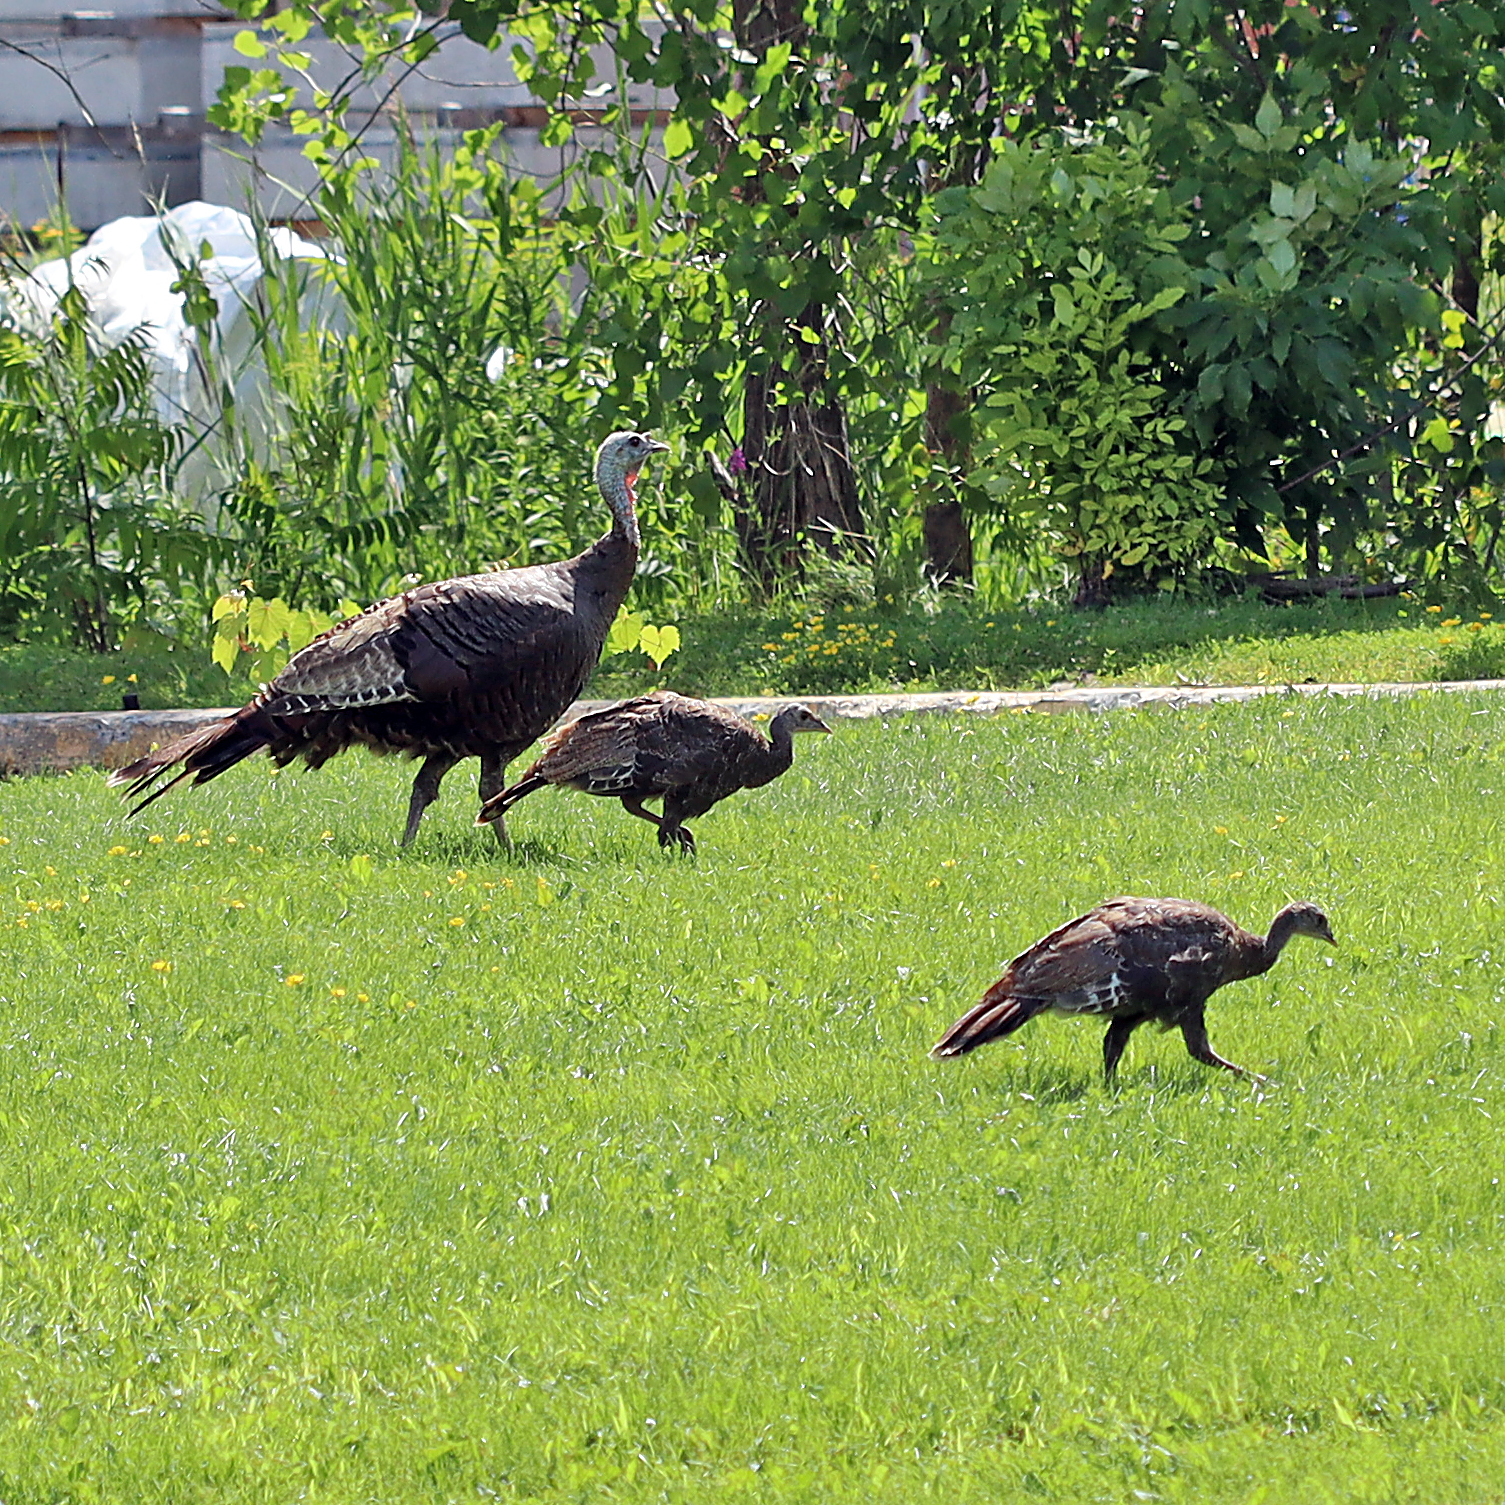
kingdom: Animalia
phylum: Chordata
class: Aves
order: Galliformes
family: Phasianidae
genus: Meleagris
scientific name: Meleagris gallopavo
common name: Wild turkey
